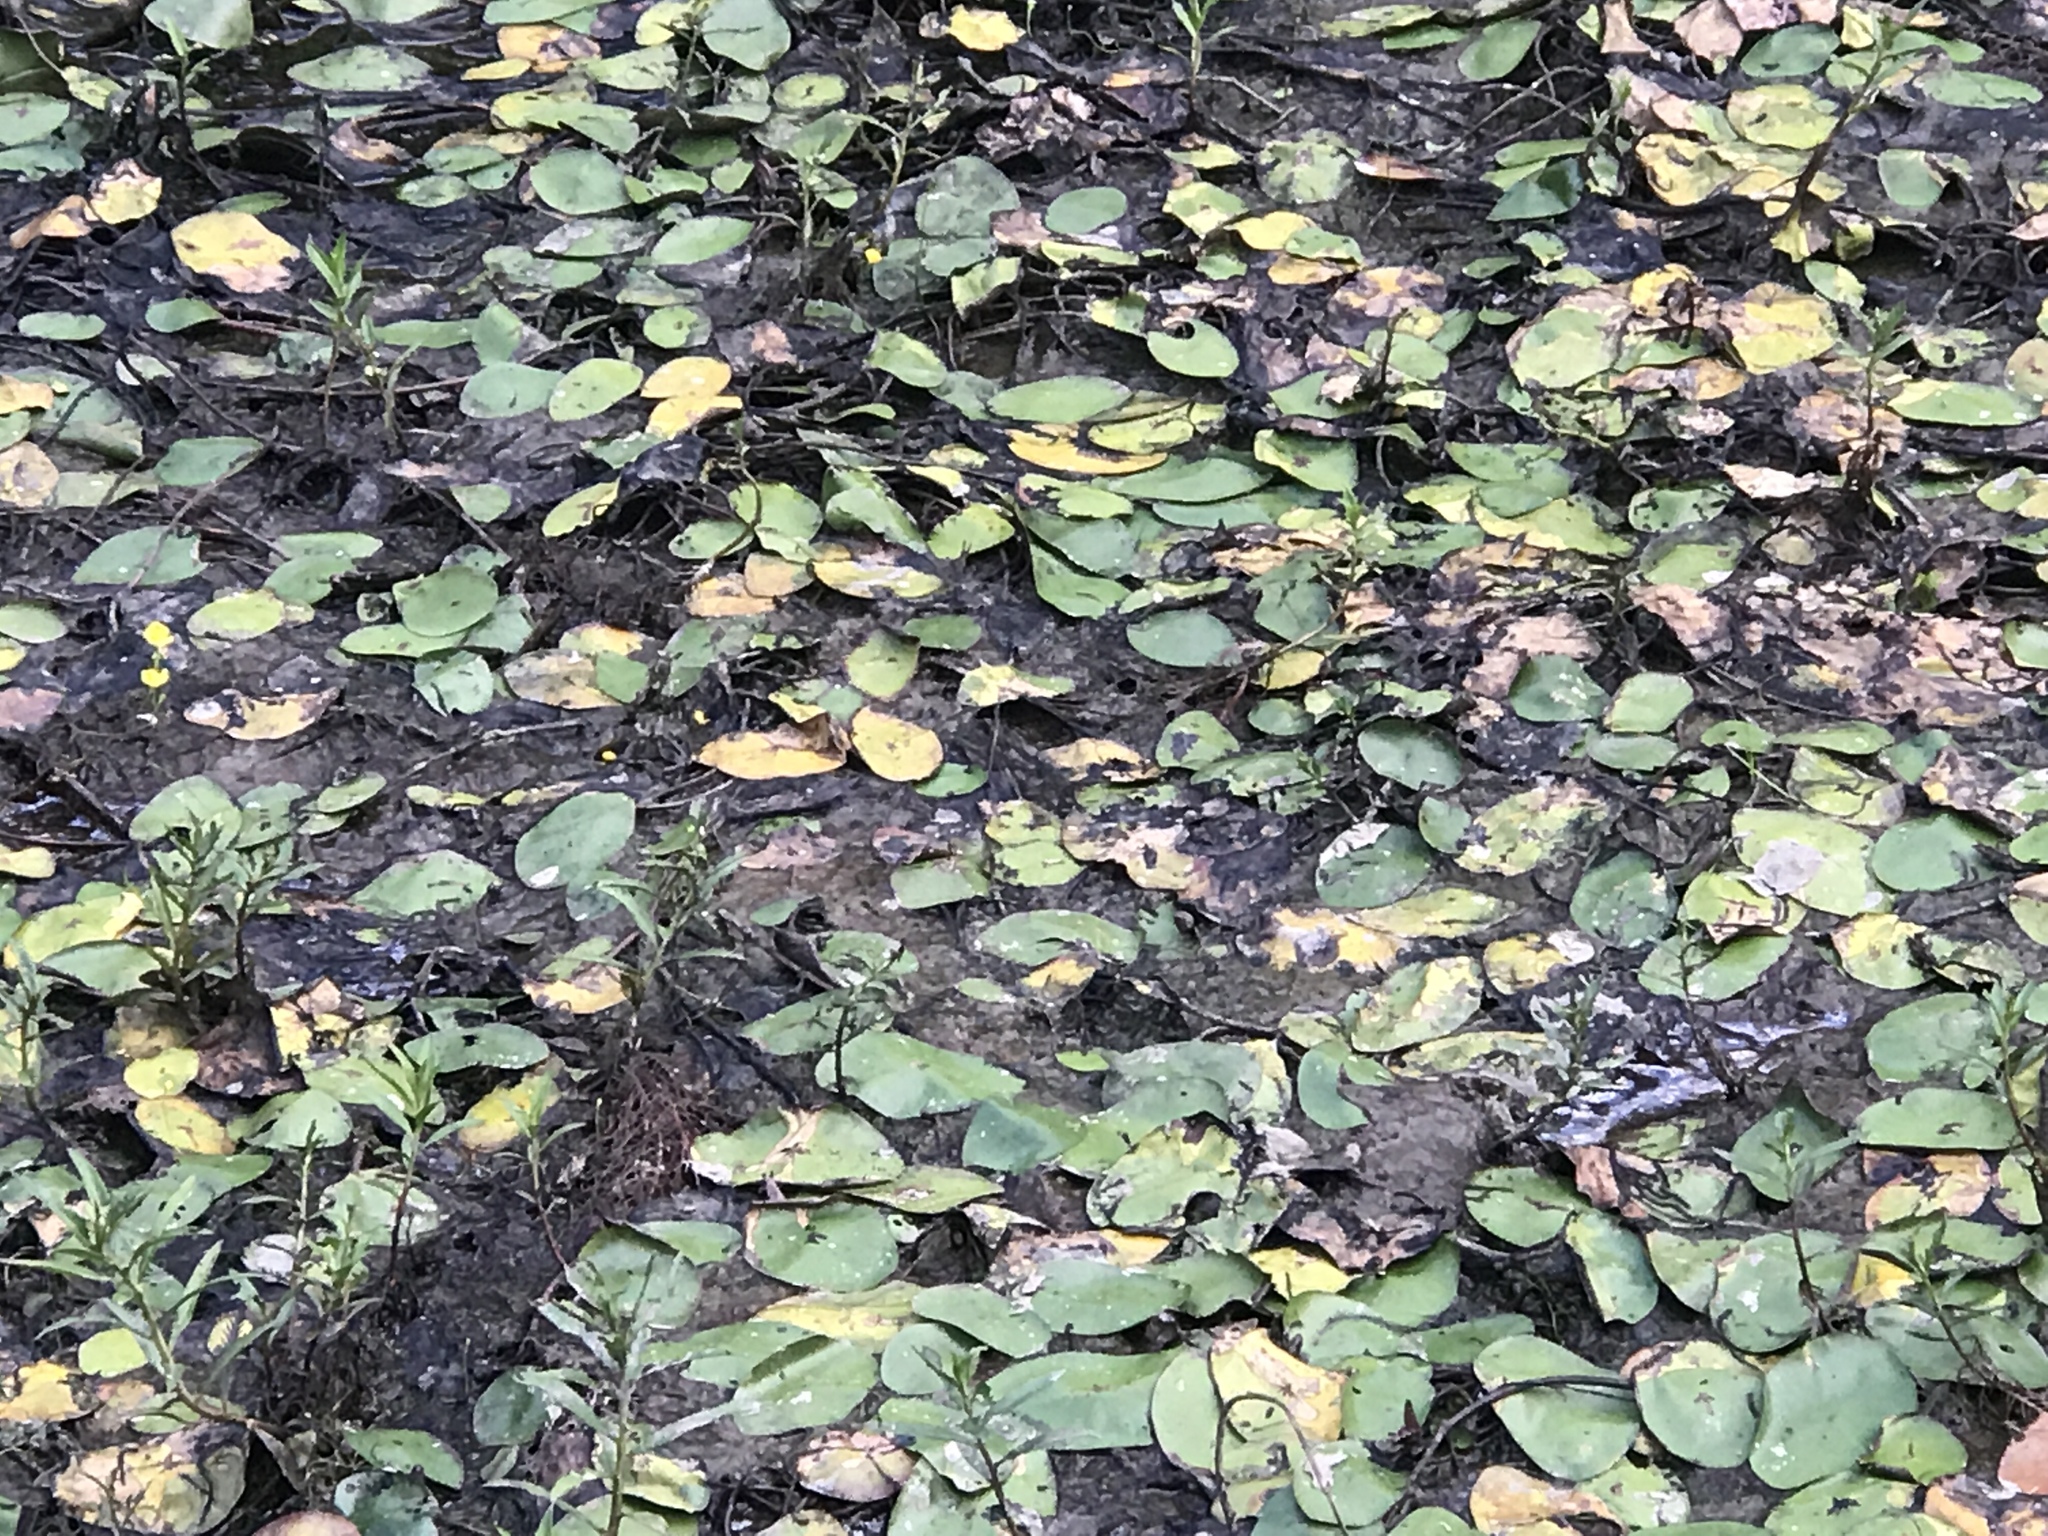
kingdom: Plantae
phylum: Tracheophyta
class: Magnoliopsida
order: Nymphaeales
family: Cabombaceae
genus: Brasenia
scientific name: Brasenia schreberi
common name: Water-shield
